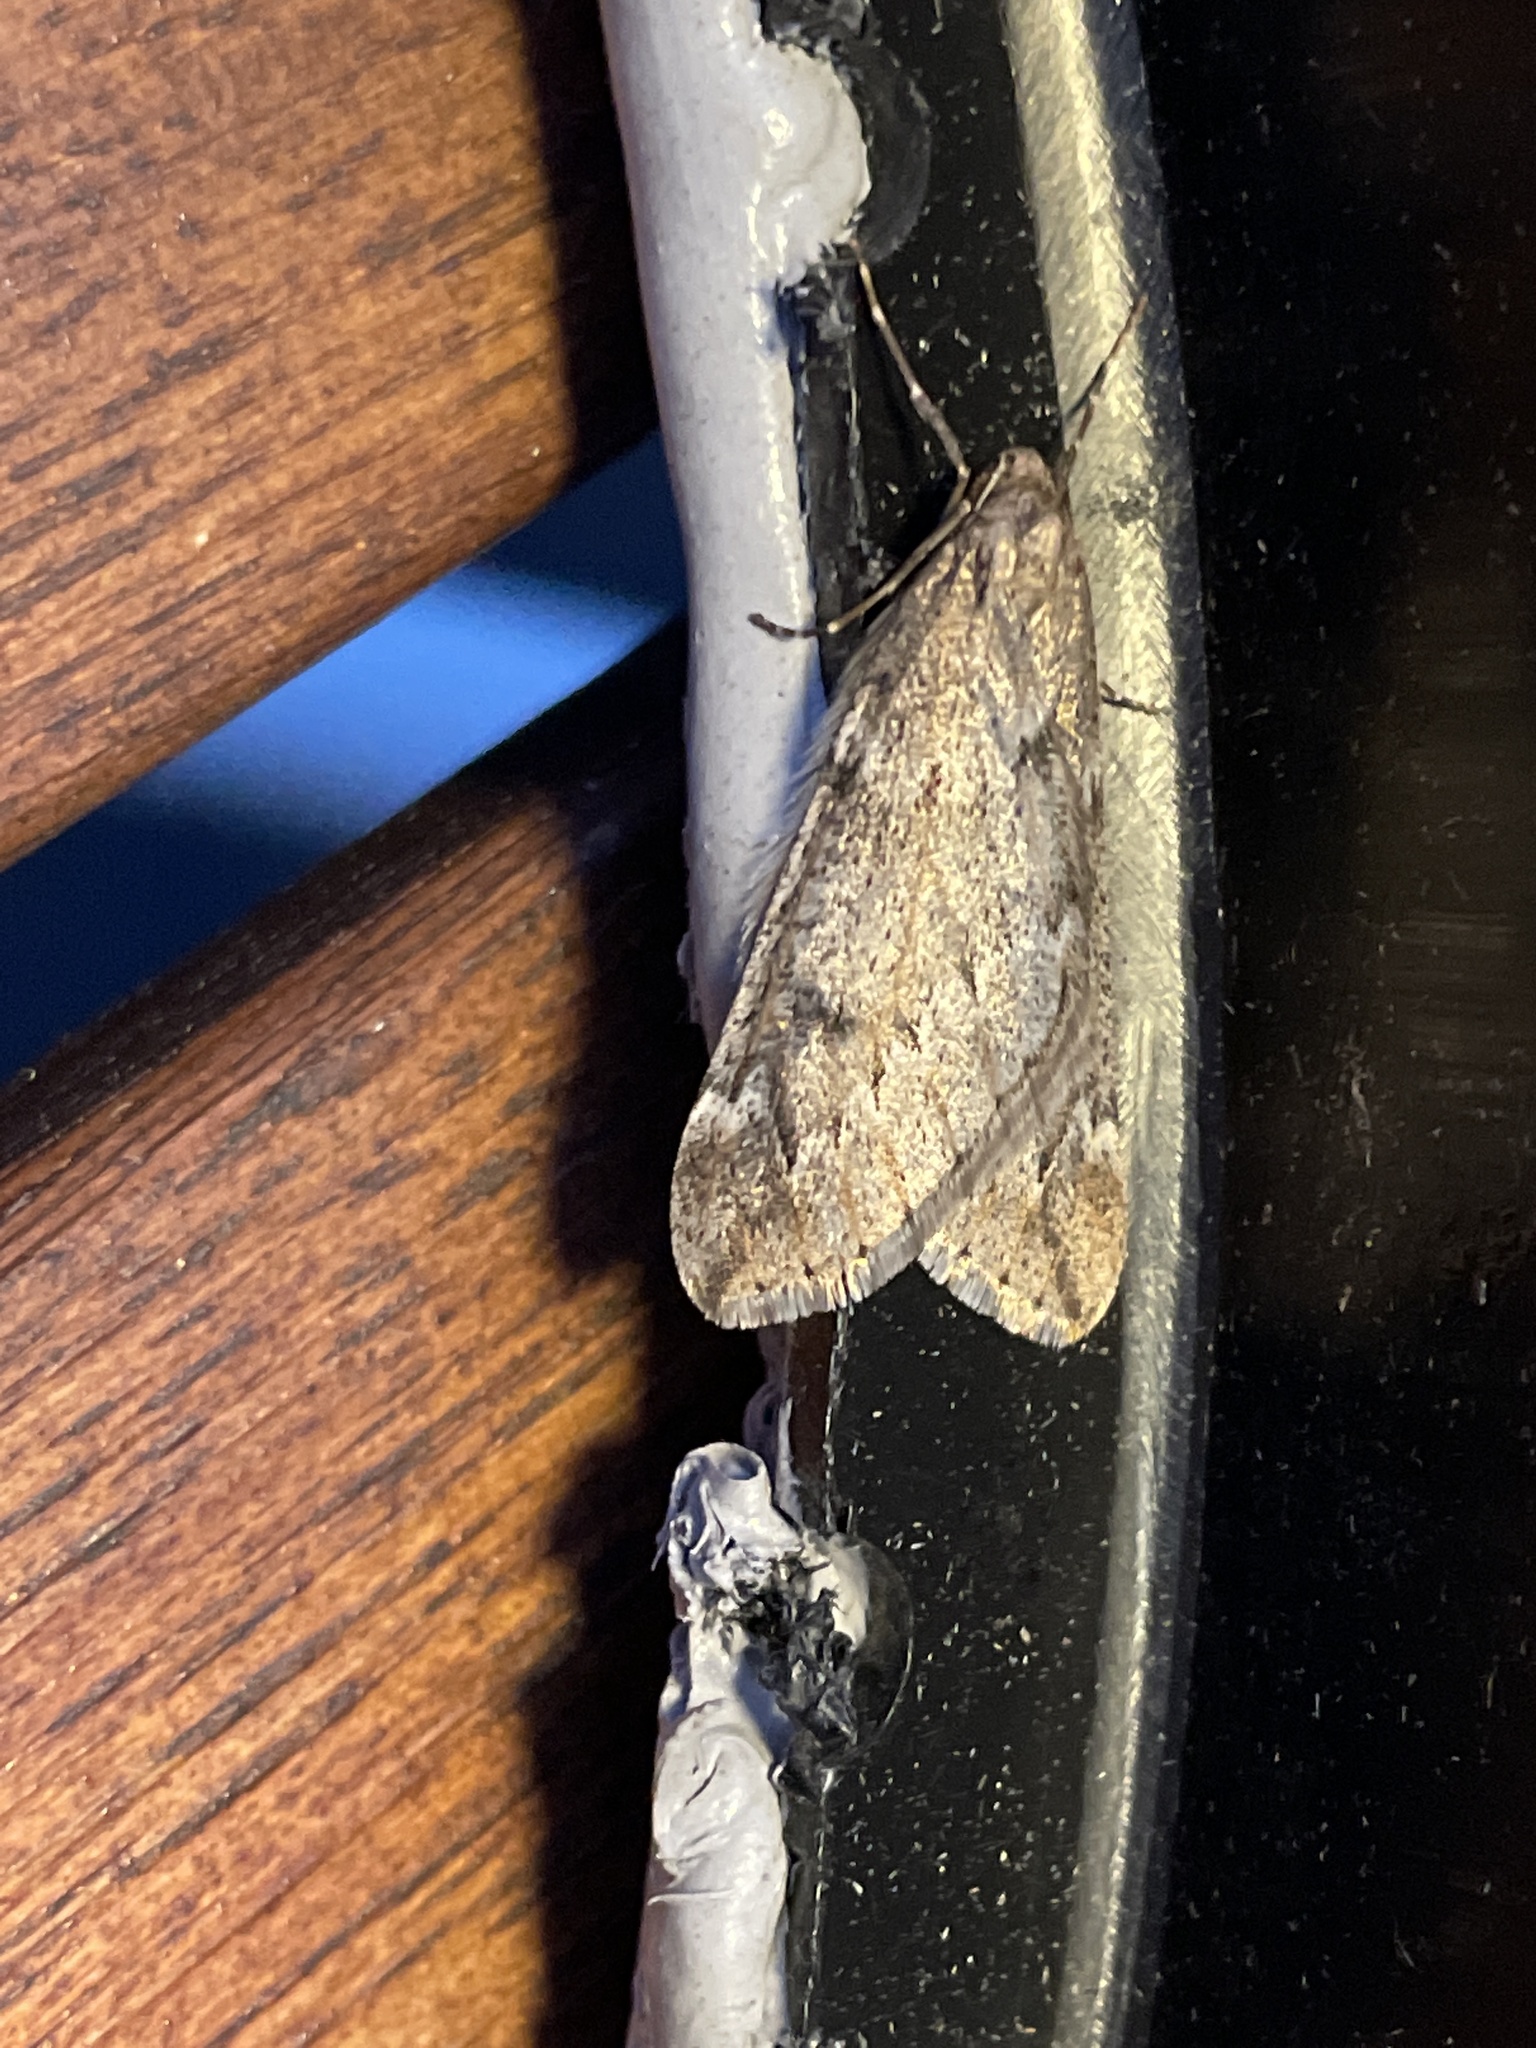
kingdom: Animalia
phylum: Arthropoda
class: Insecta
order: Lepidoptera
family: Geometridae
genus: Alsophila
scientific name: Alsophila aescularia
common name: March moth
